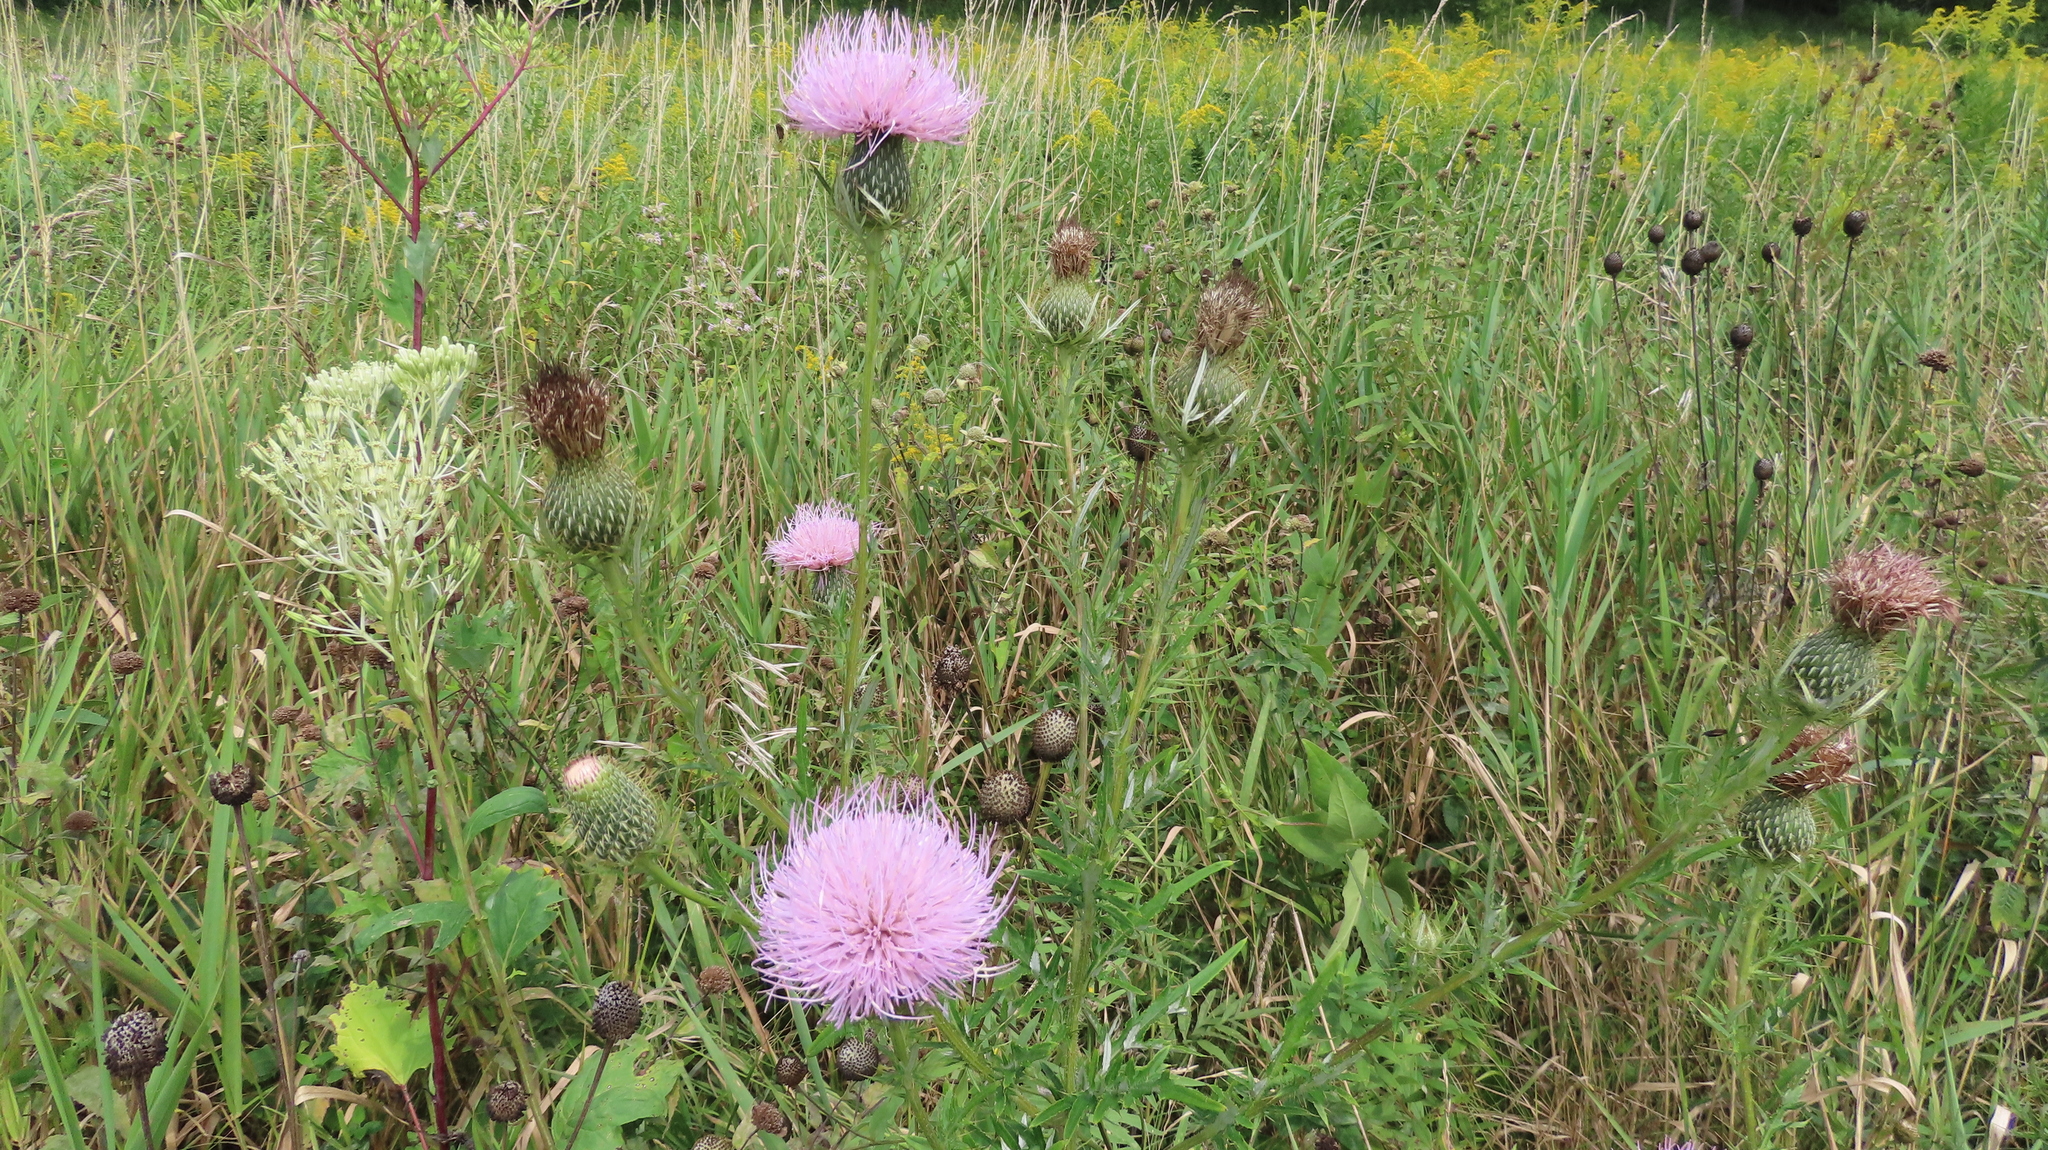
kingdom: Plantae
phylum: Tracheophyta
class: Magnoliopsida
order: Asterales
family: Asteraceae
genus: Cirsium
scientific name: Cirsium discolor
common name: Field thistle
